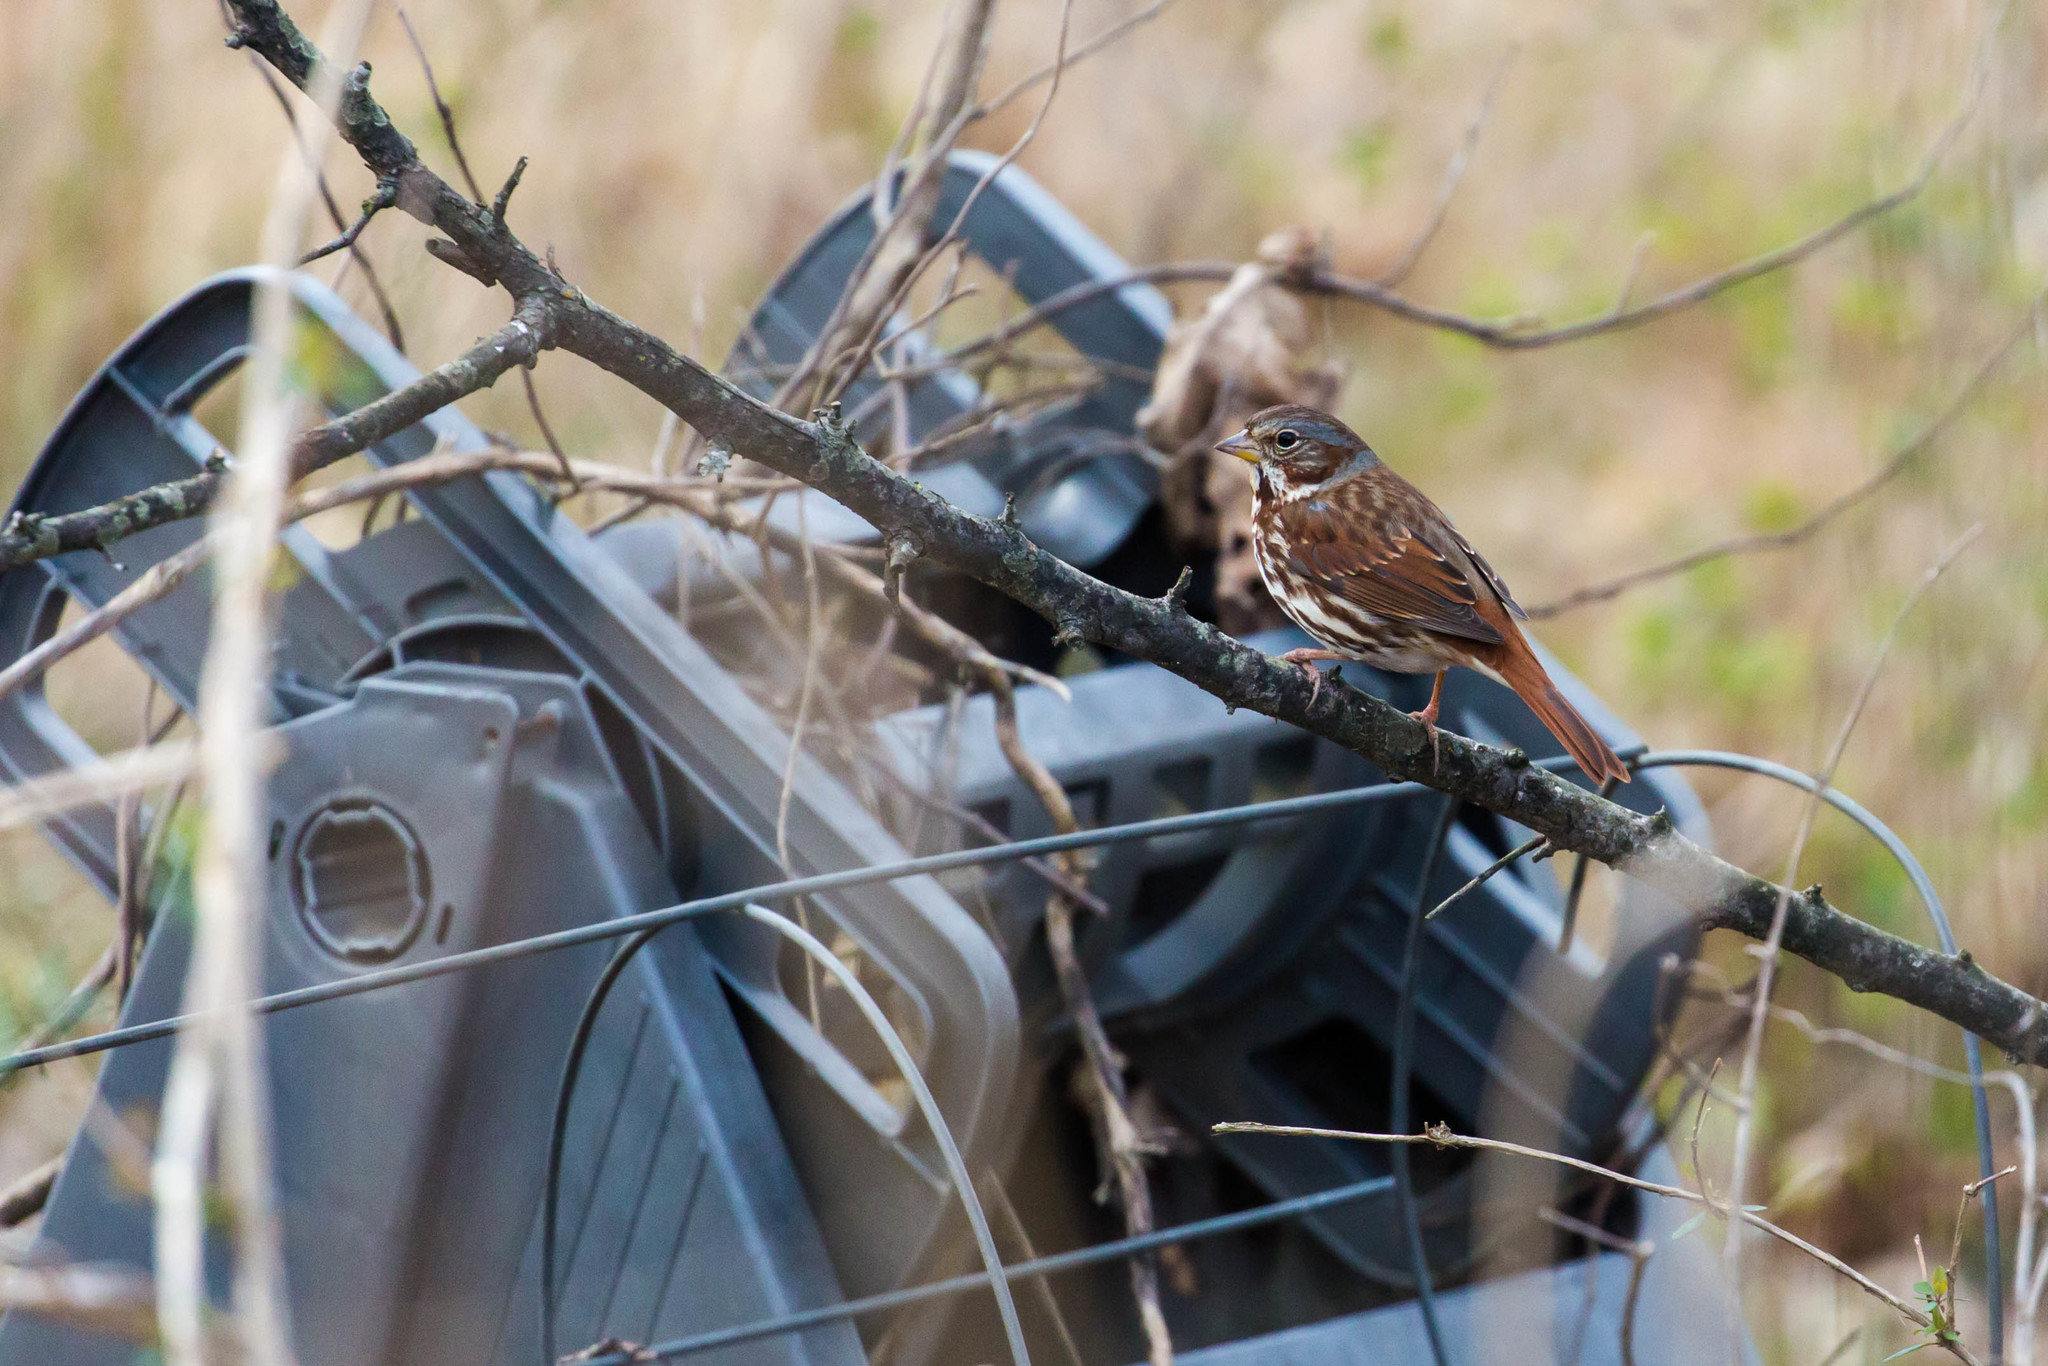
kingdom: Animalia
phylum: Chordata
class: Aves
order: Passeriformes
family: Passerellidae
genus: Passerella
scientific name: Passerella iliaca
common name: Fox sparrow
